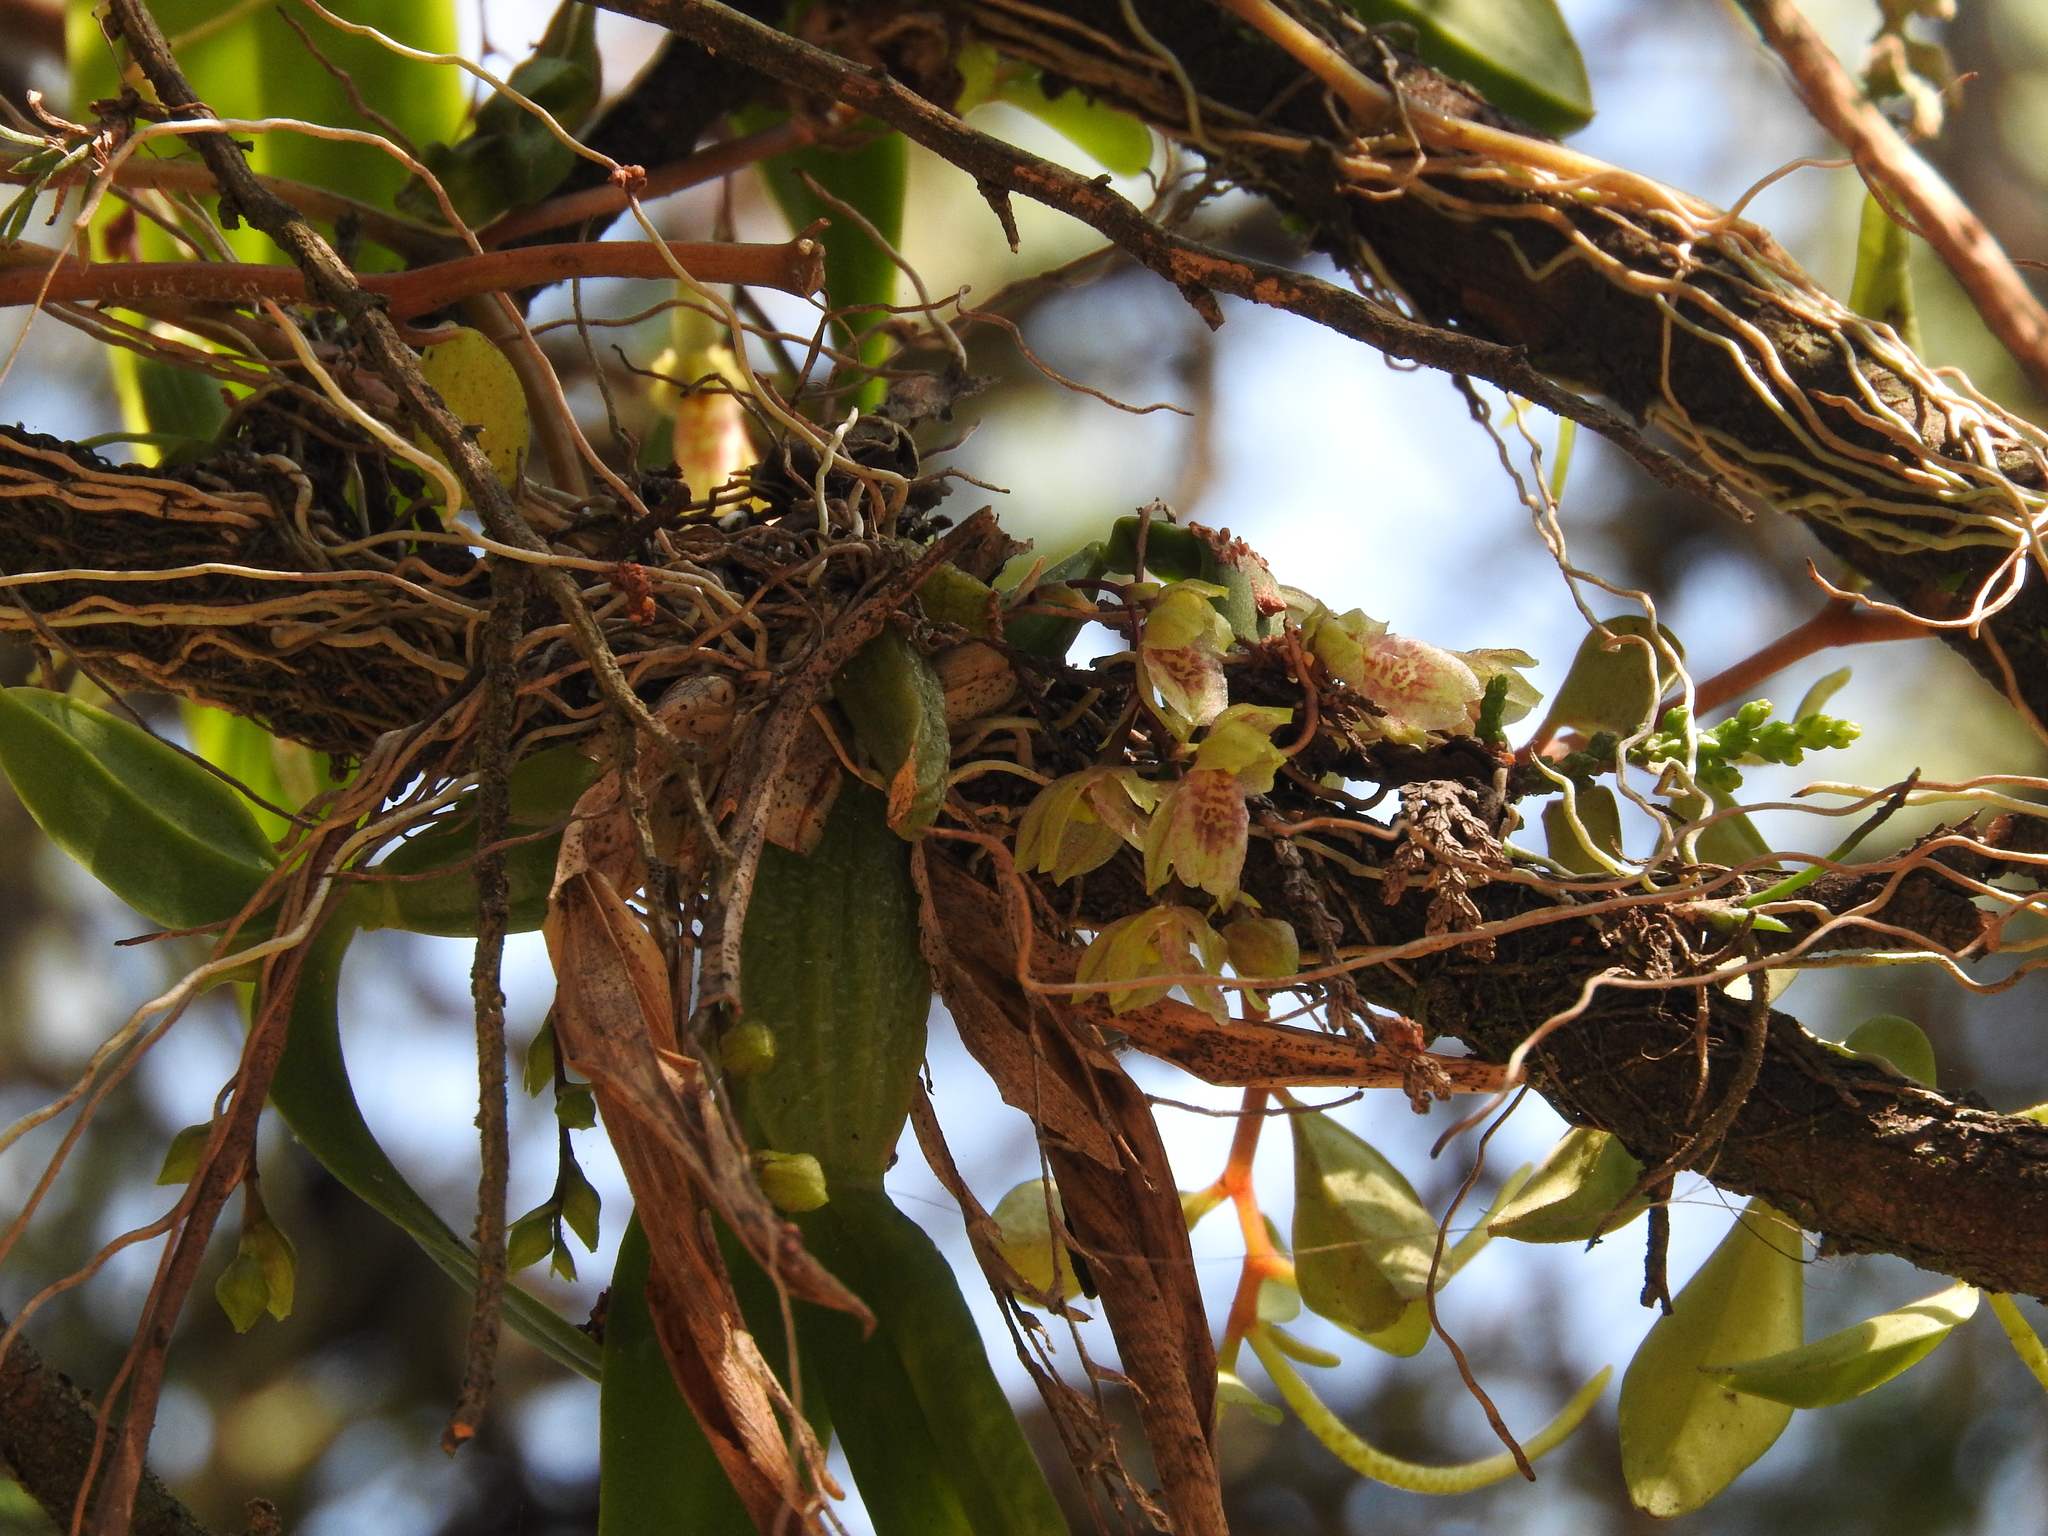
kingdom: Plantae
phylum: Tracheophyta
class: Liliopsida
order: Asparagales
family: Orchidaceae
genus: Leochilus
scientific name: Leochilus oncidioides
